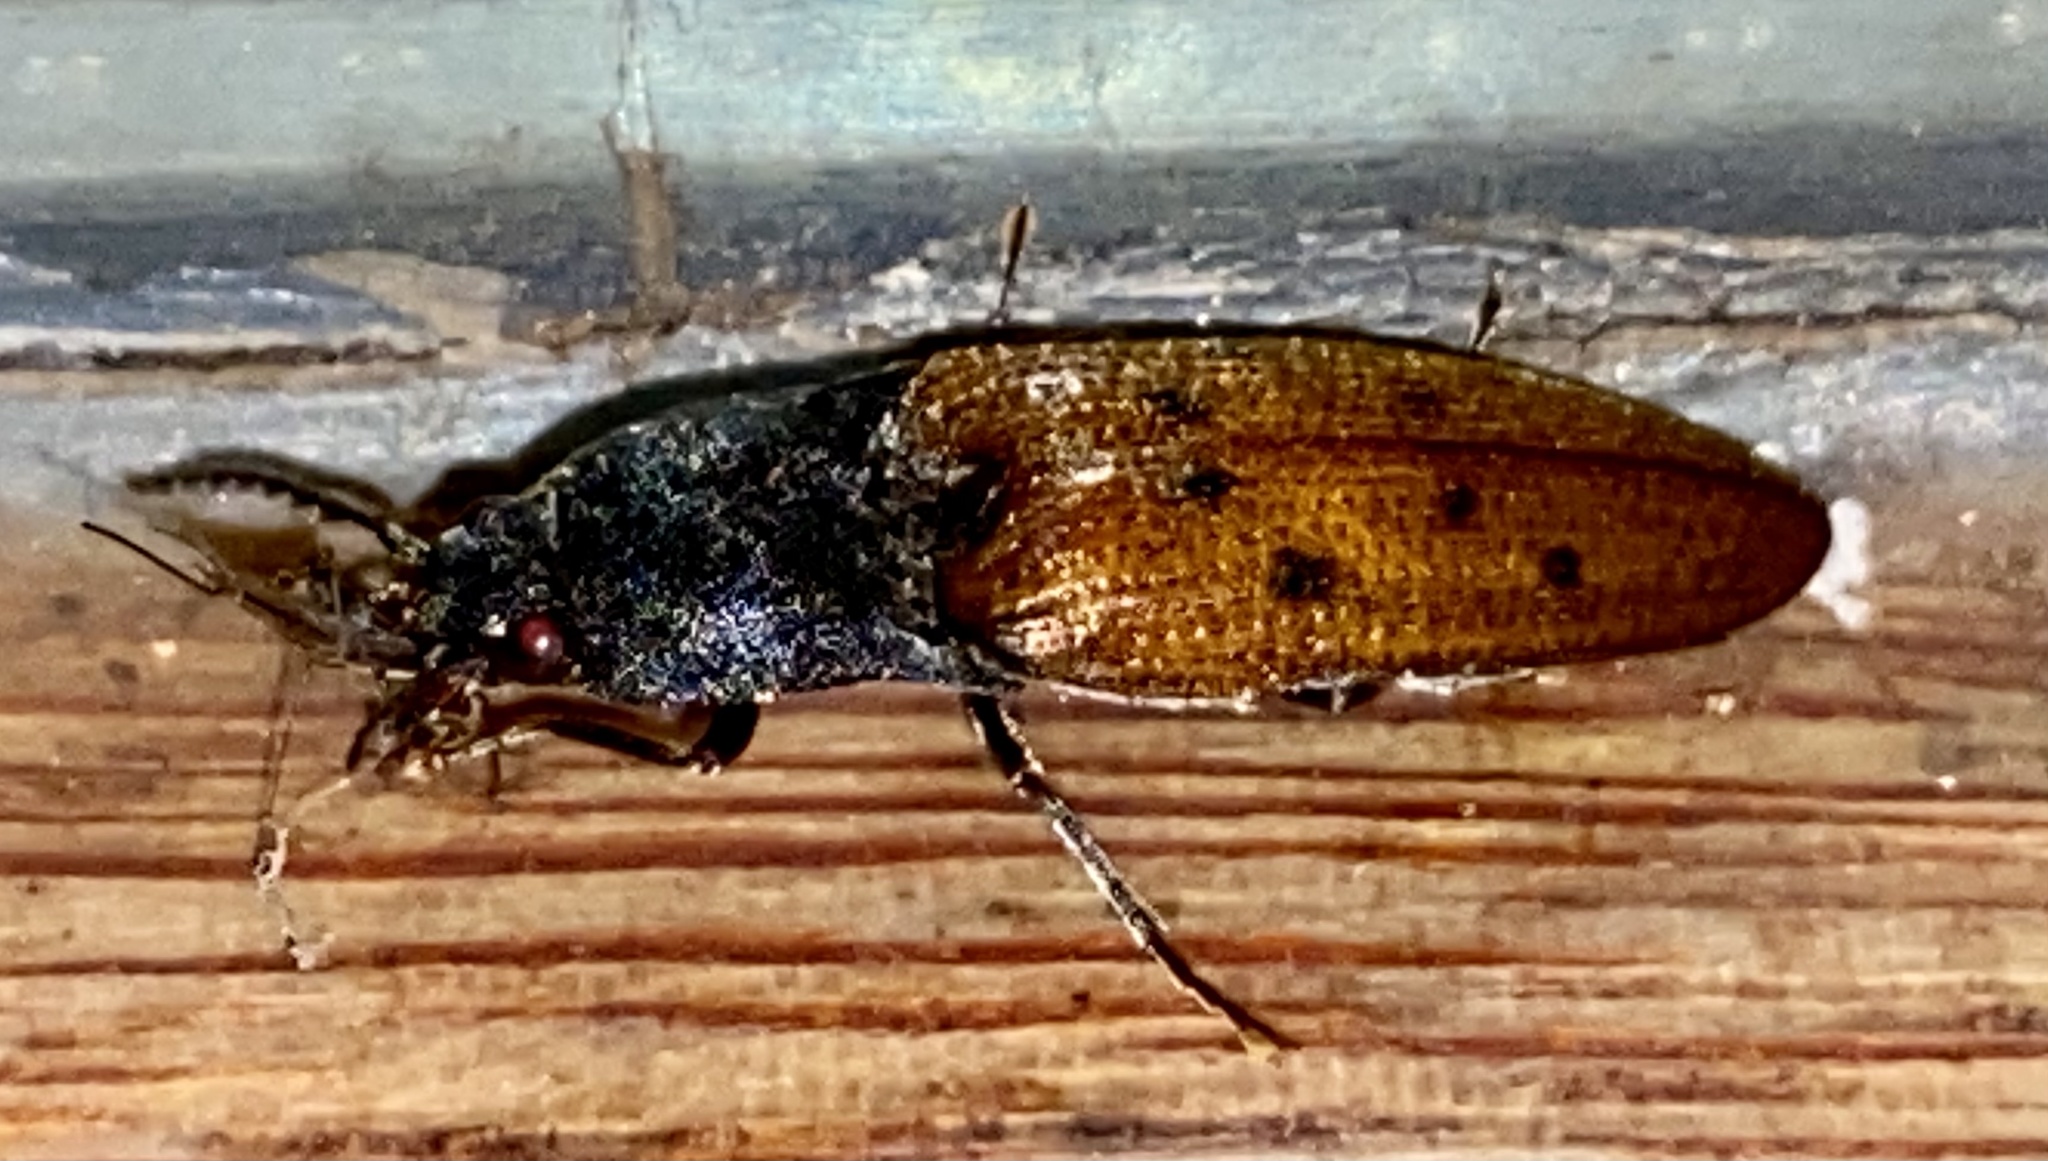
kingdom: Animalia
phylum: Arthropoda
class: Insecta
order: Coleoptera
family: Elateridae
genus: Monocrepidius
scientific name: Monocrepidius
